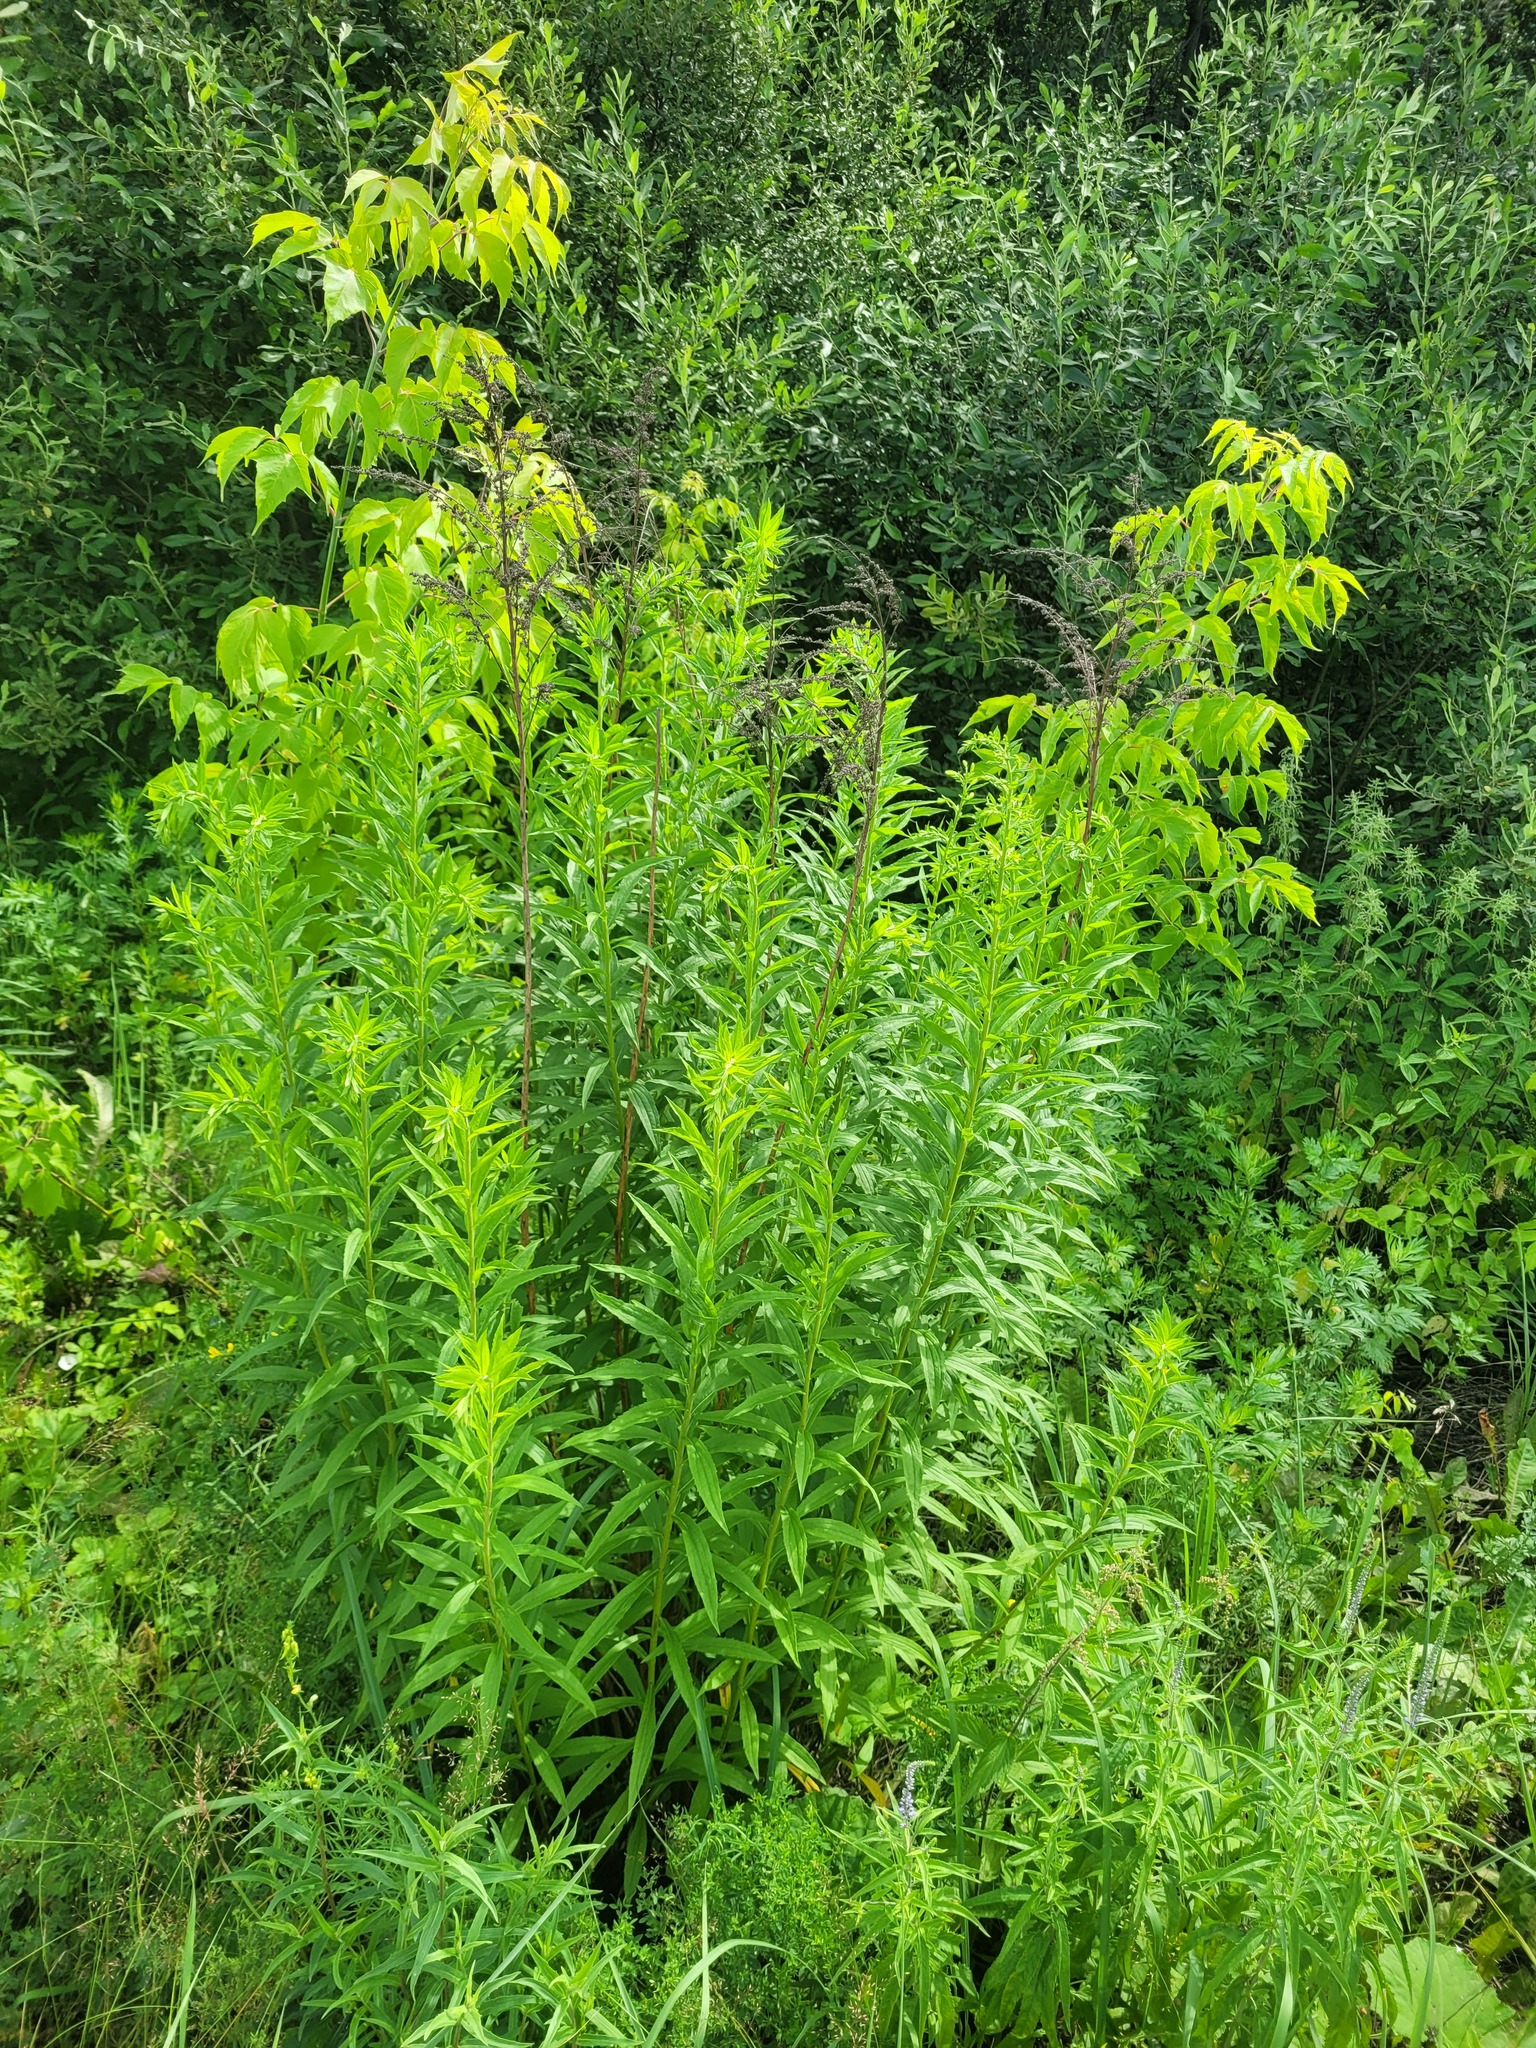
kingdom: Plantae
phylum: Tracheophyta
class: Magnoliopsida
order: Asterales
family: Asteraceae
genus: Solidago
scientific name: Solidago canadensis
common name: Canada goldenrod
